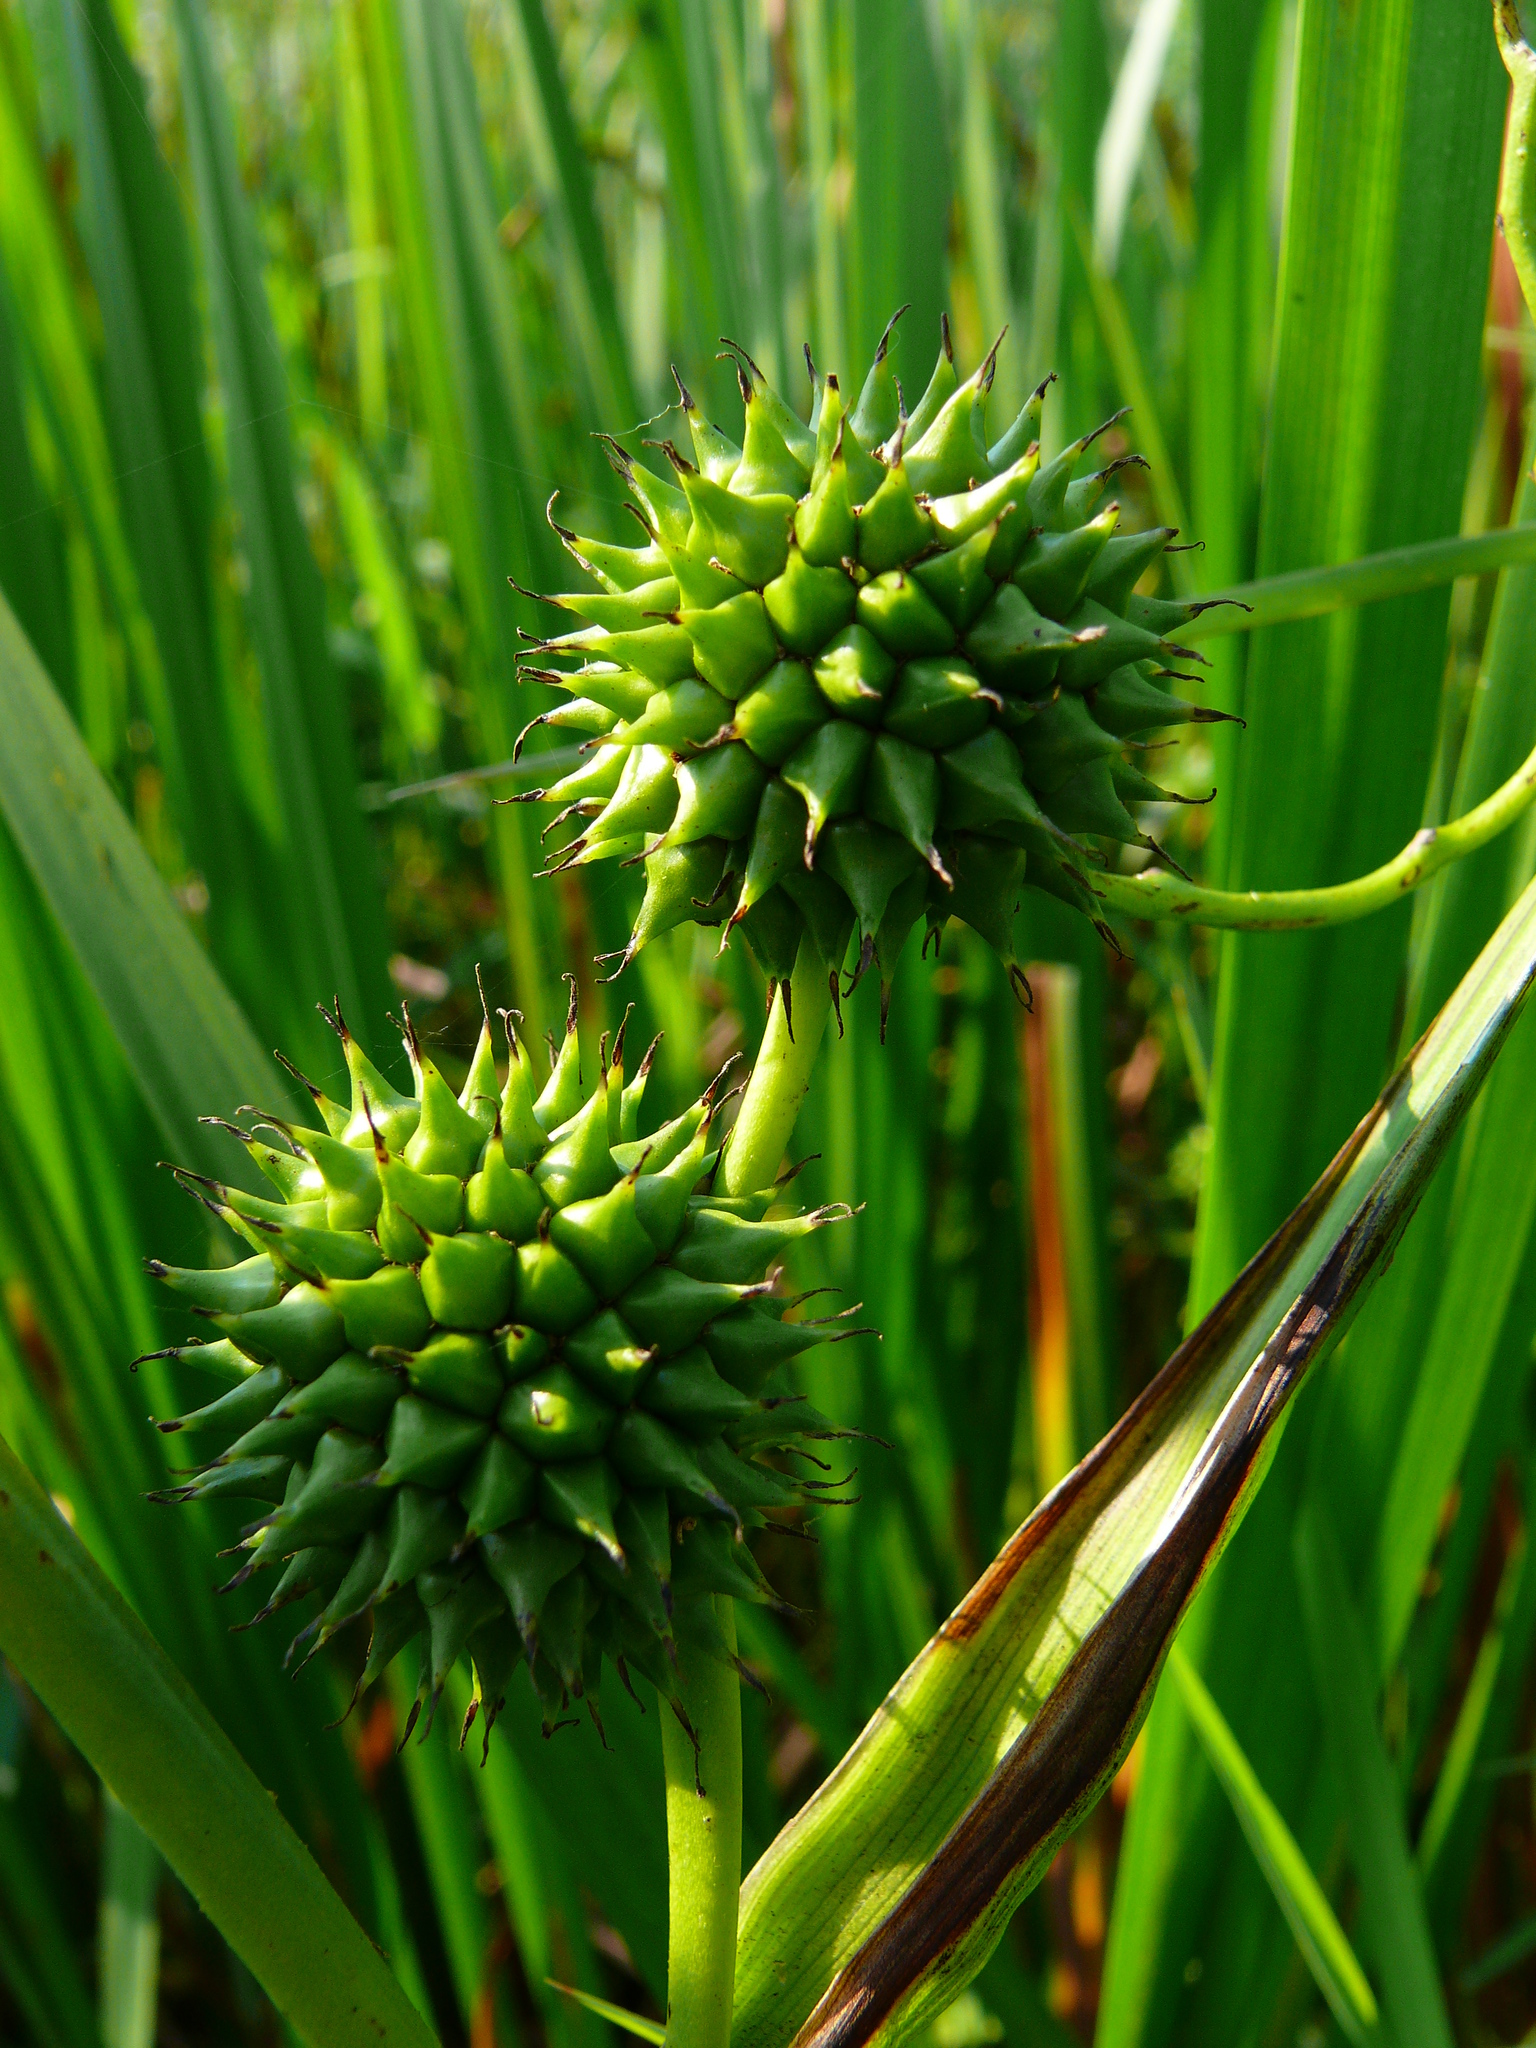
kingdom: Plantae
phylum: Tracheophyta
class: Liliopsida
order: Poales
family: Typhaceae
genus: Sparganium
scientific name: Sparganium erectum
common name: Branched bur-reed
